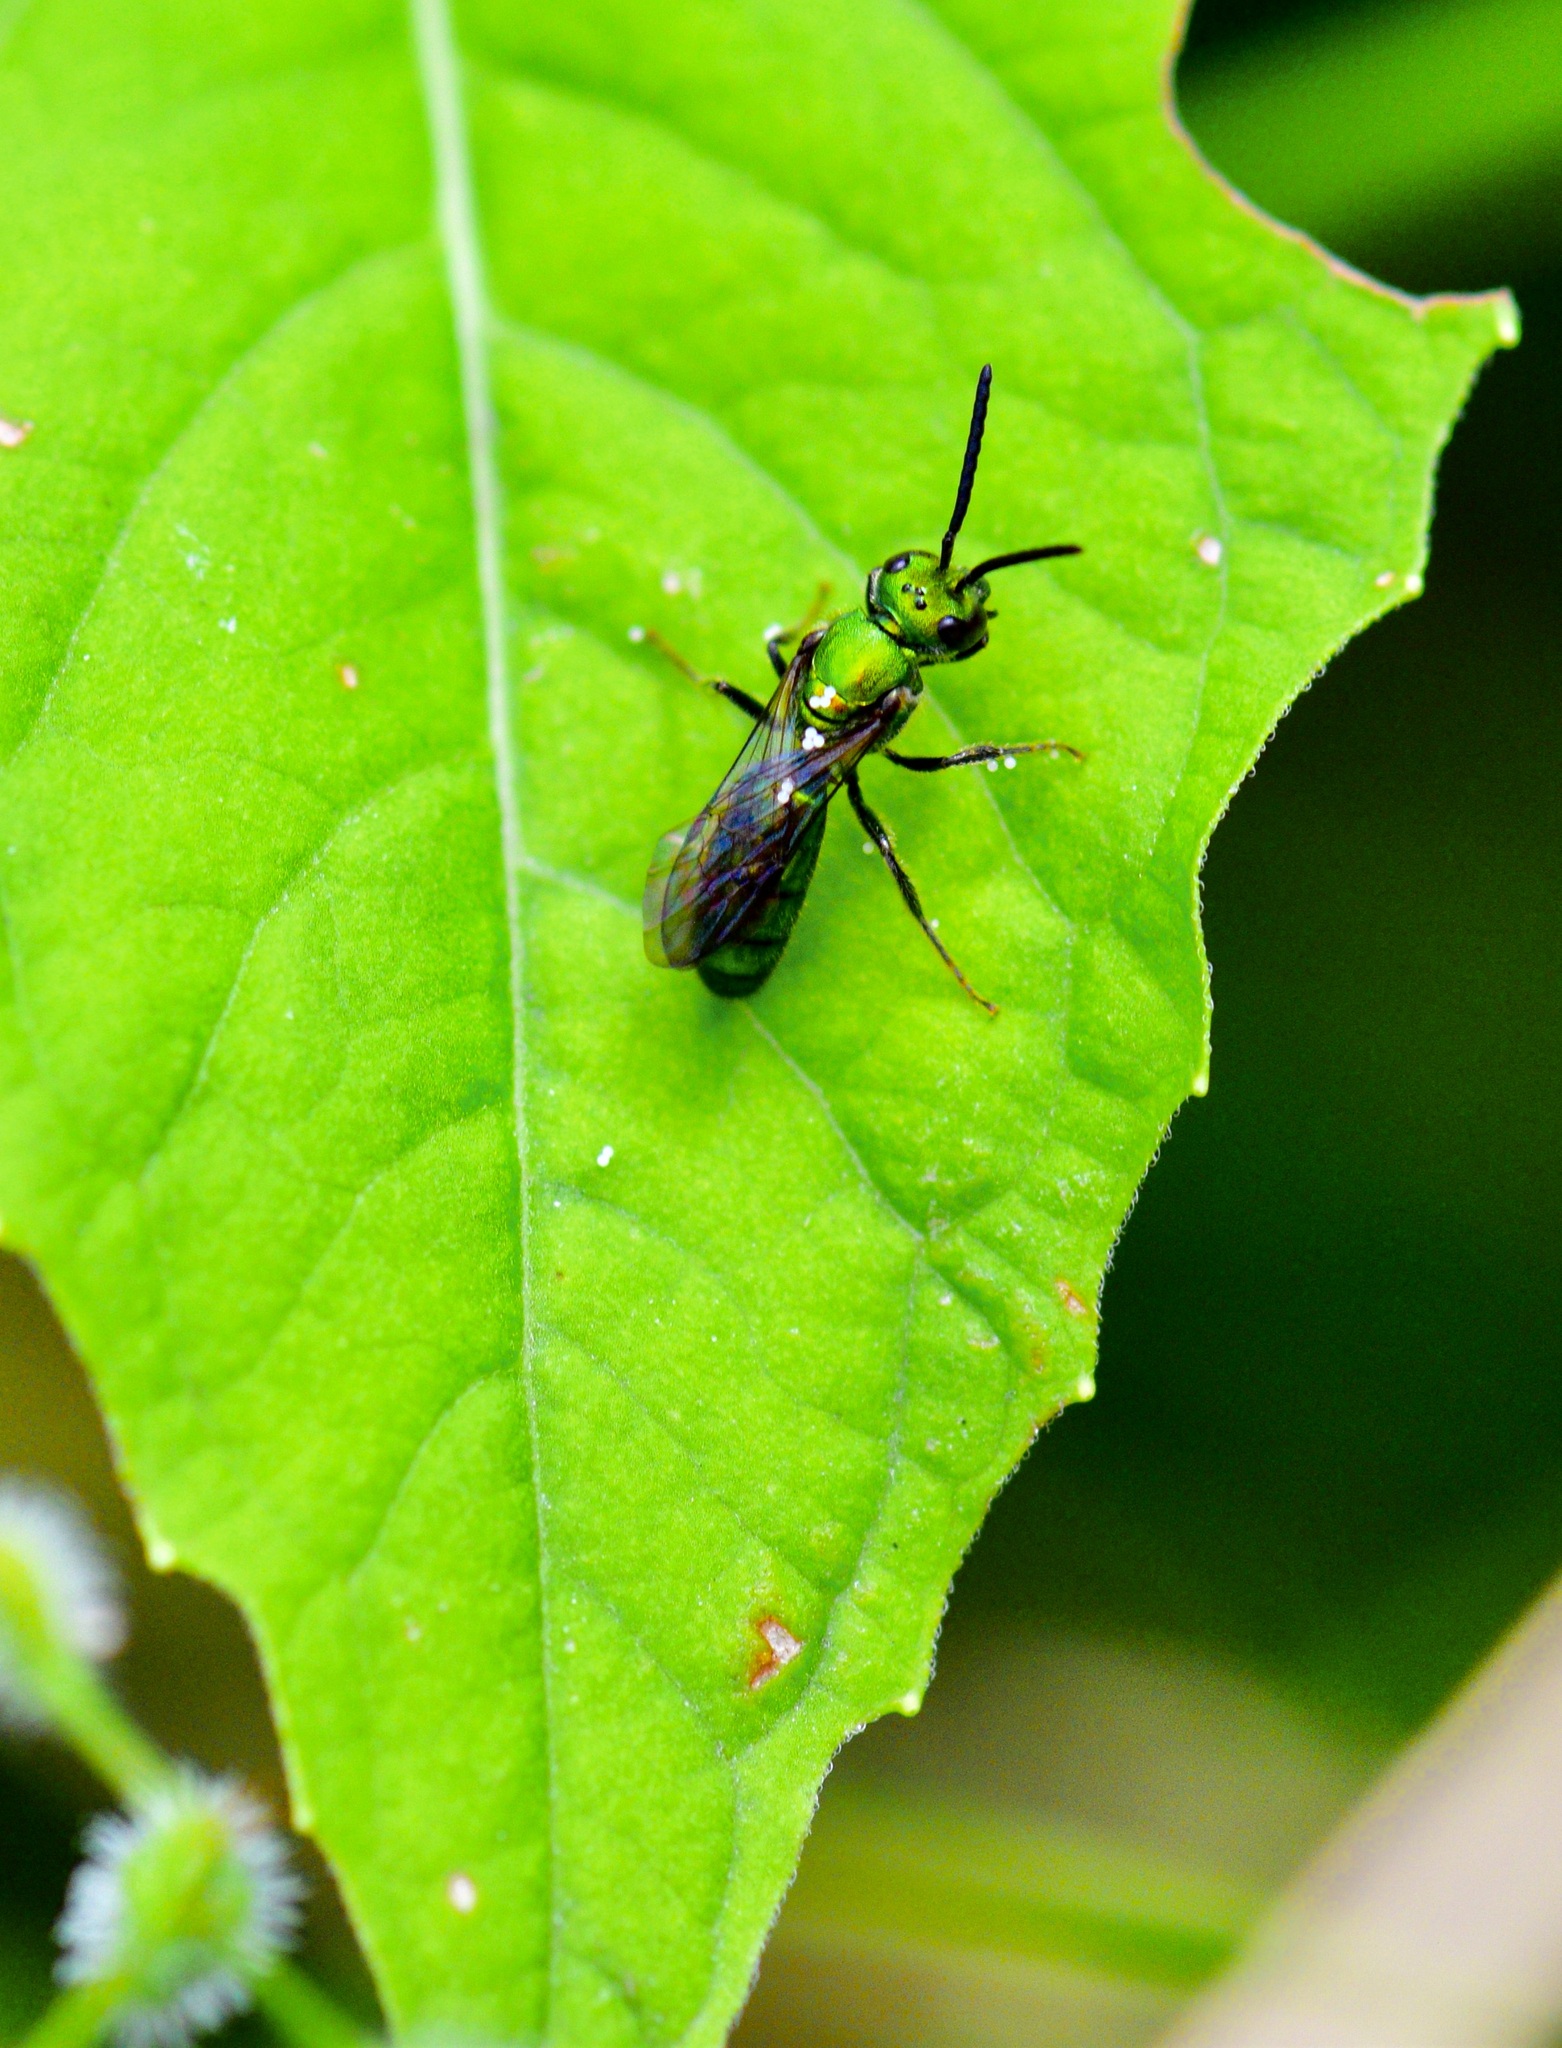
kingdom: Animalia
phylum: Arthropoda
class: Insecta
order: Hymenoptera
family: Halictidae
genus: Augochlora
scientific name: Augochlora pura
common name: Pure green sweat bee
